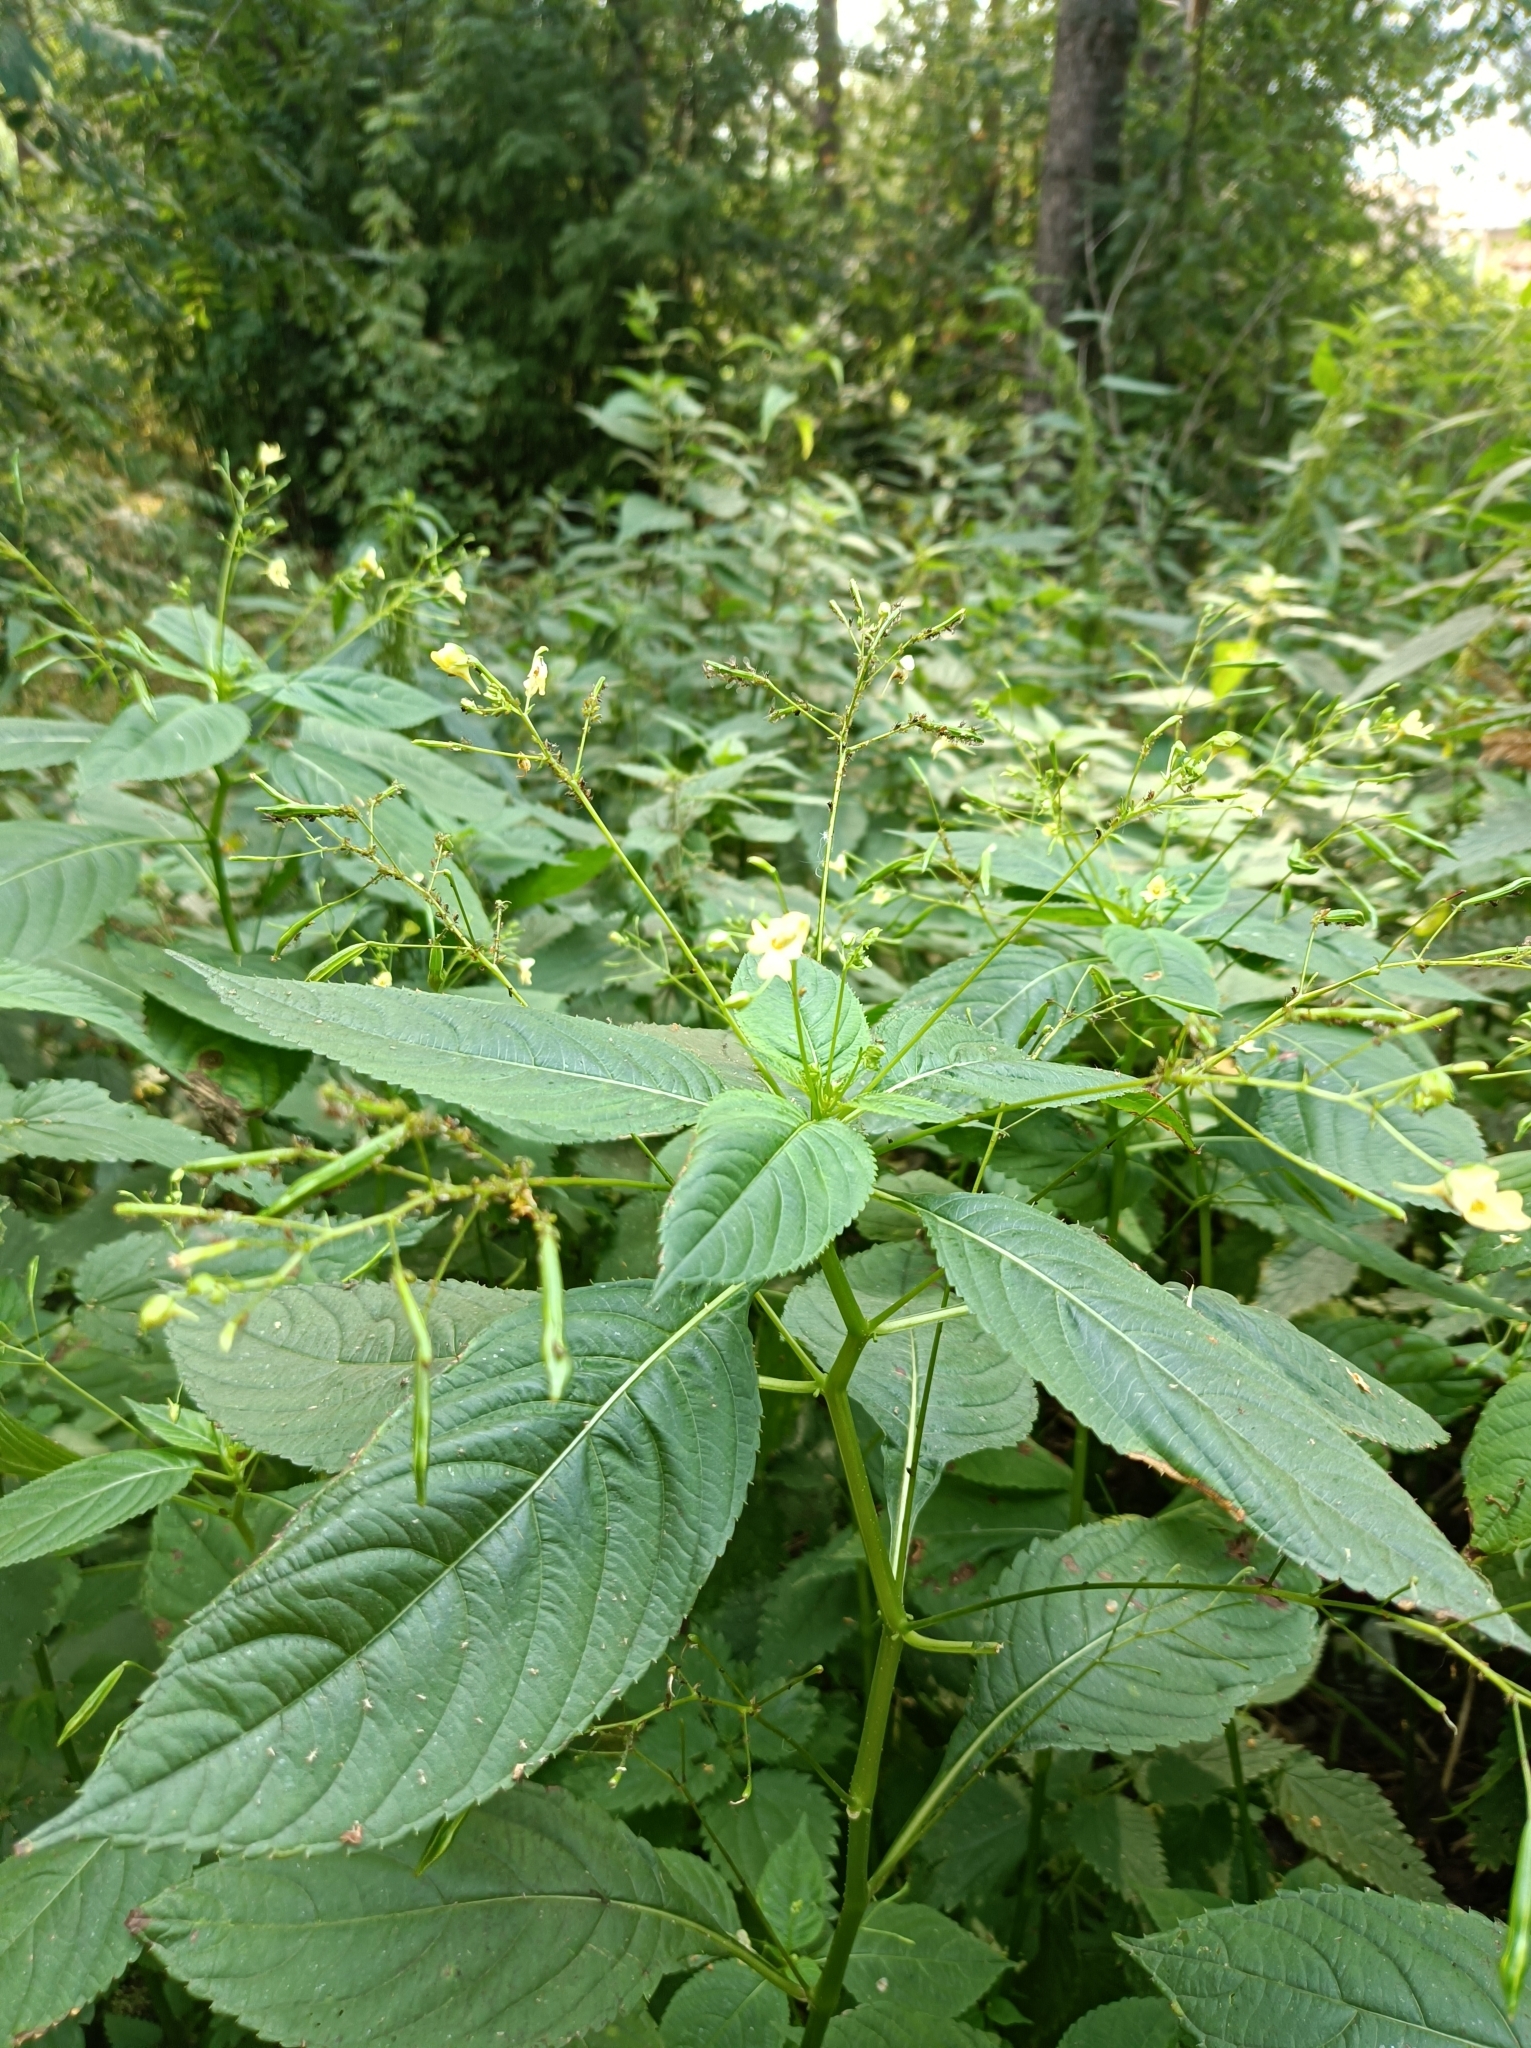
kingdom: Plantae
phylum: Tracheophyta
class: Magnoliopsida
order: Ericales
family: Balsaminaceae
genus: Impatiens
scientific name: Impatiens parviflora
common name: Small balsam
